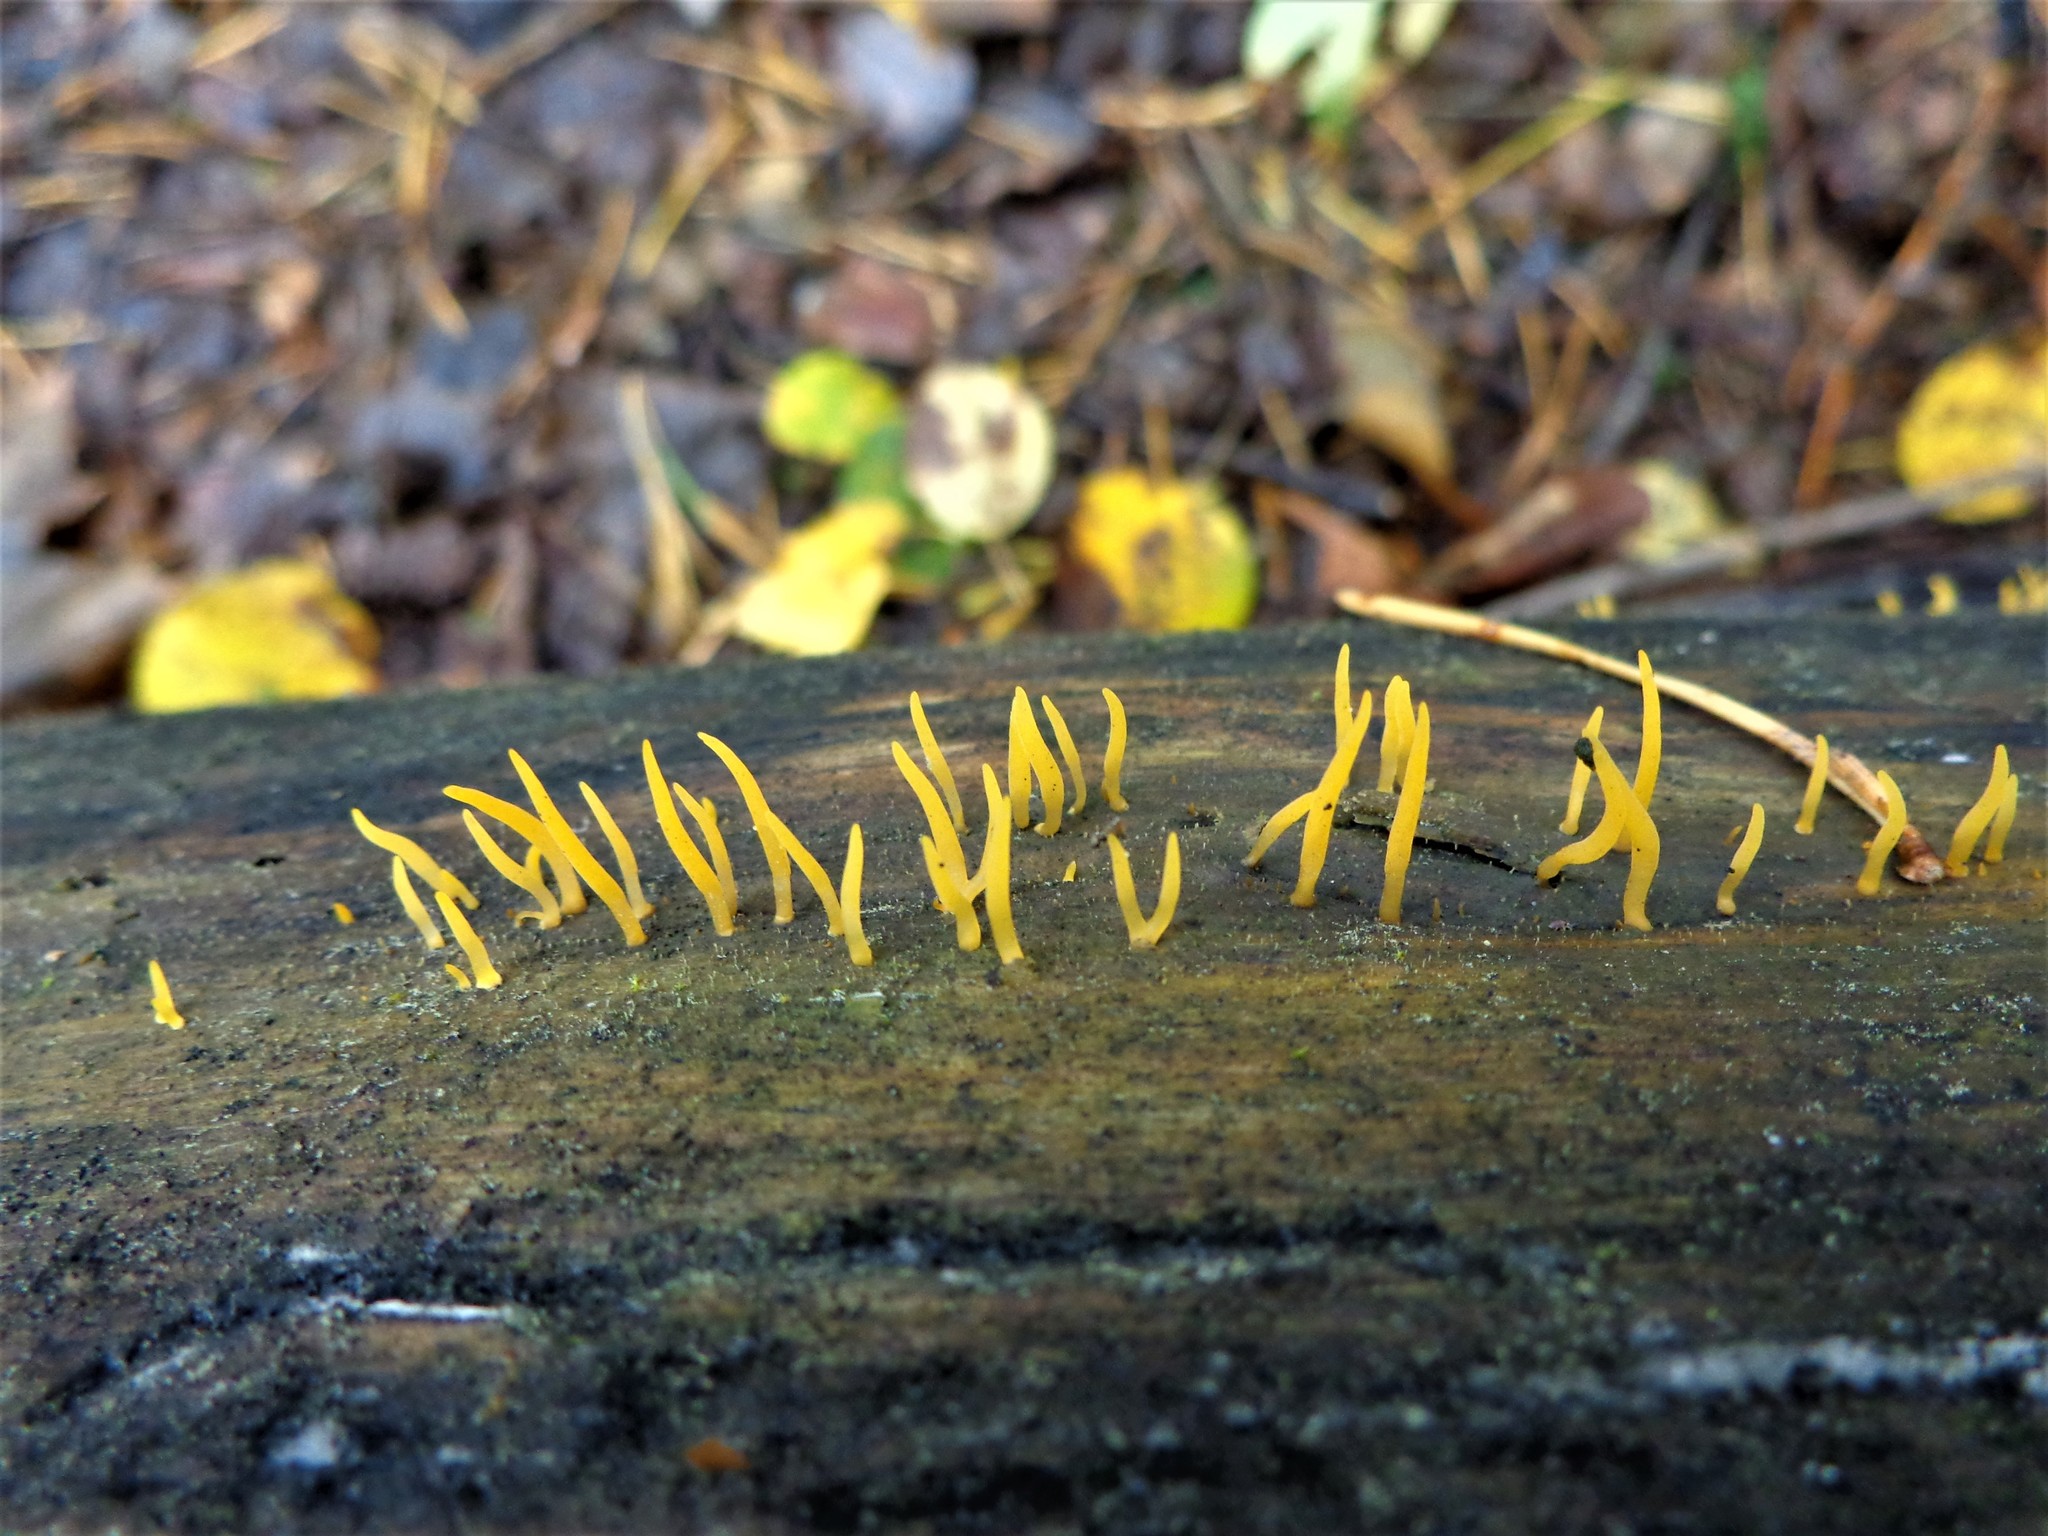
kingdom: Fungi
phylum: Basidiomycota
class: Dacrymycetes
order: Dacrymycetales
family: Dacrymycetaceae
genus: Calocera
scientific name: Calocera cornea
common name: Small stagshorn
